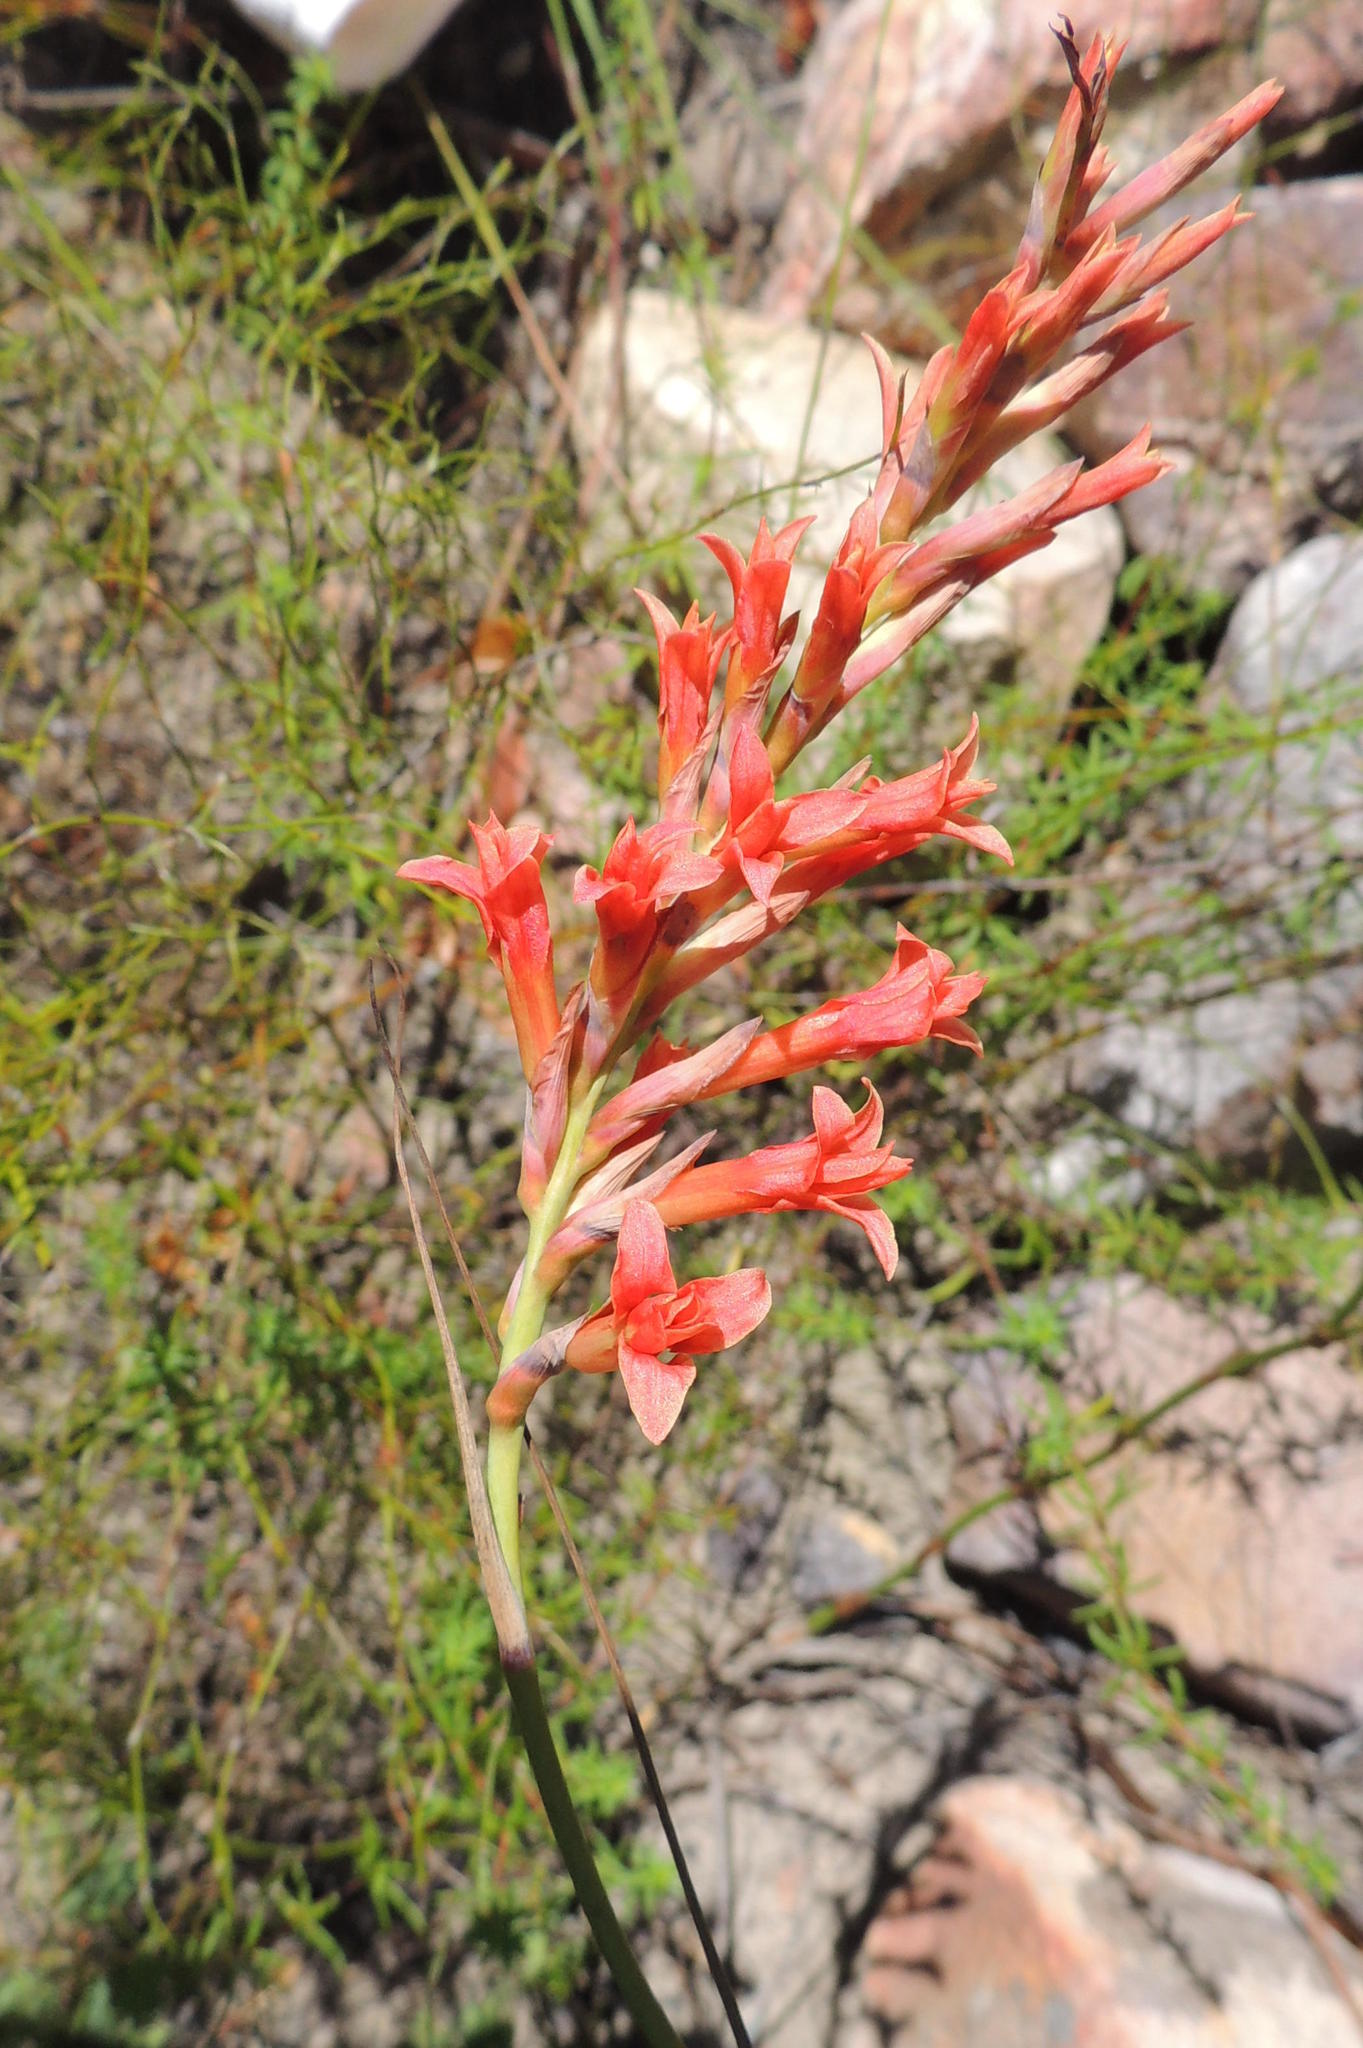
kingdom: Plantae
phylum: Tracheophyta
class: Liliopsida
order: Asparagales
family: Iridaceae
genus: Tritoniopsis
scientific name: Tritoniopsis triticea
